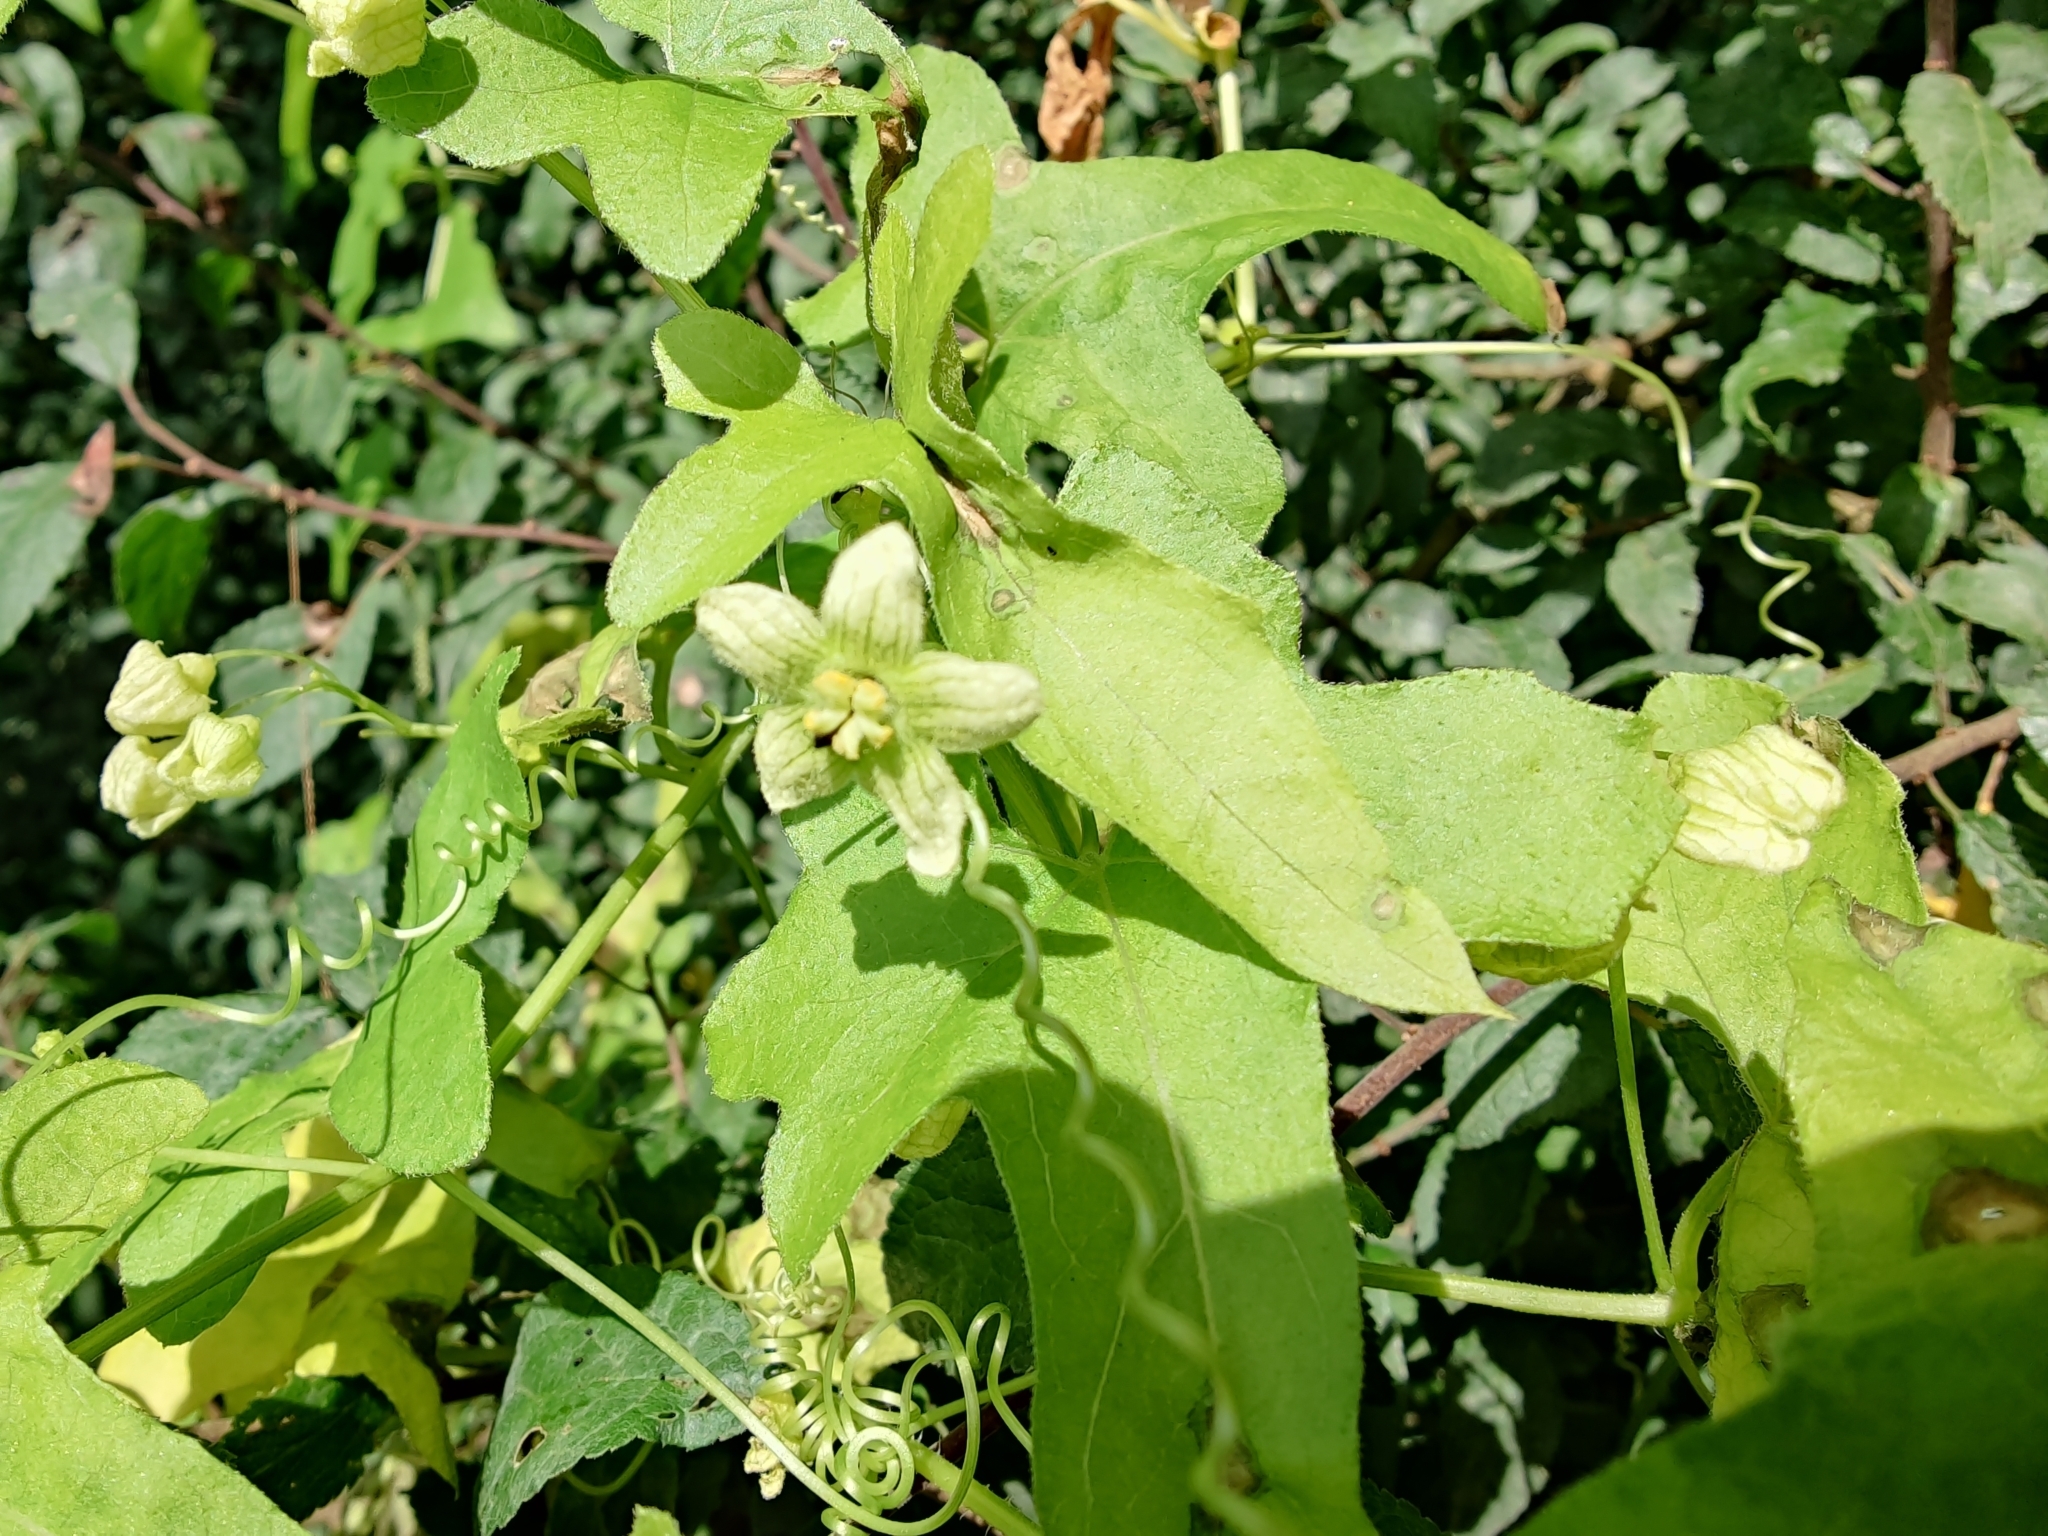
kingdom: Plantae
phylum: Tracheophyta
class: Magnoliopsida
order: Cucurbitales
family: Cucurbitaceae
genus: Bryonia
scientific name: Bryonia cretica
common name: Cretan bryony
